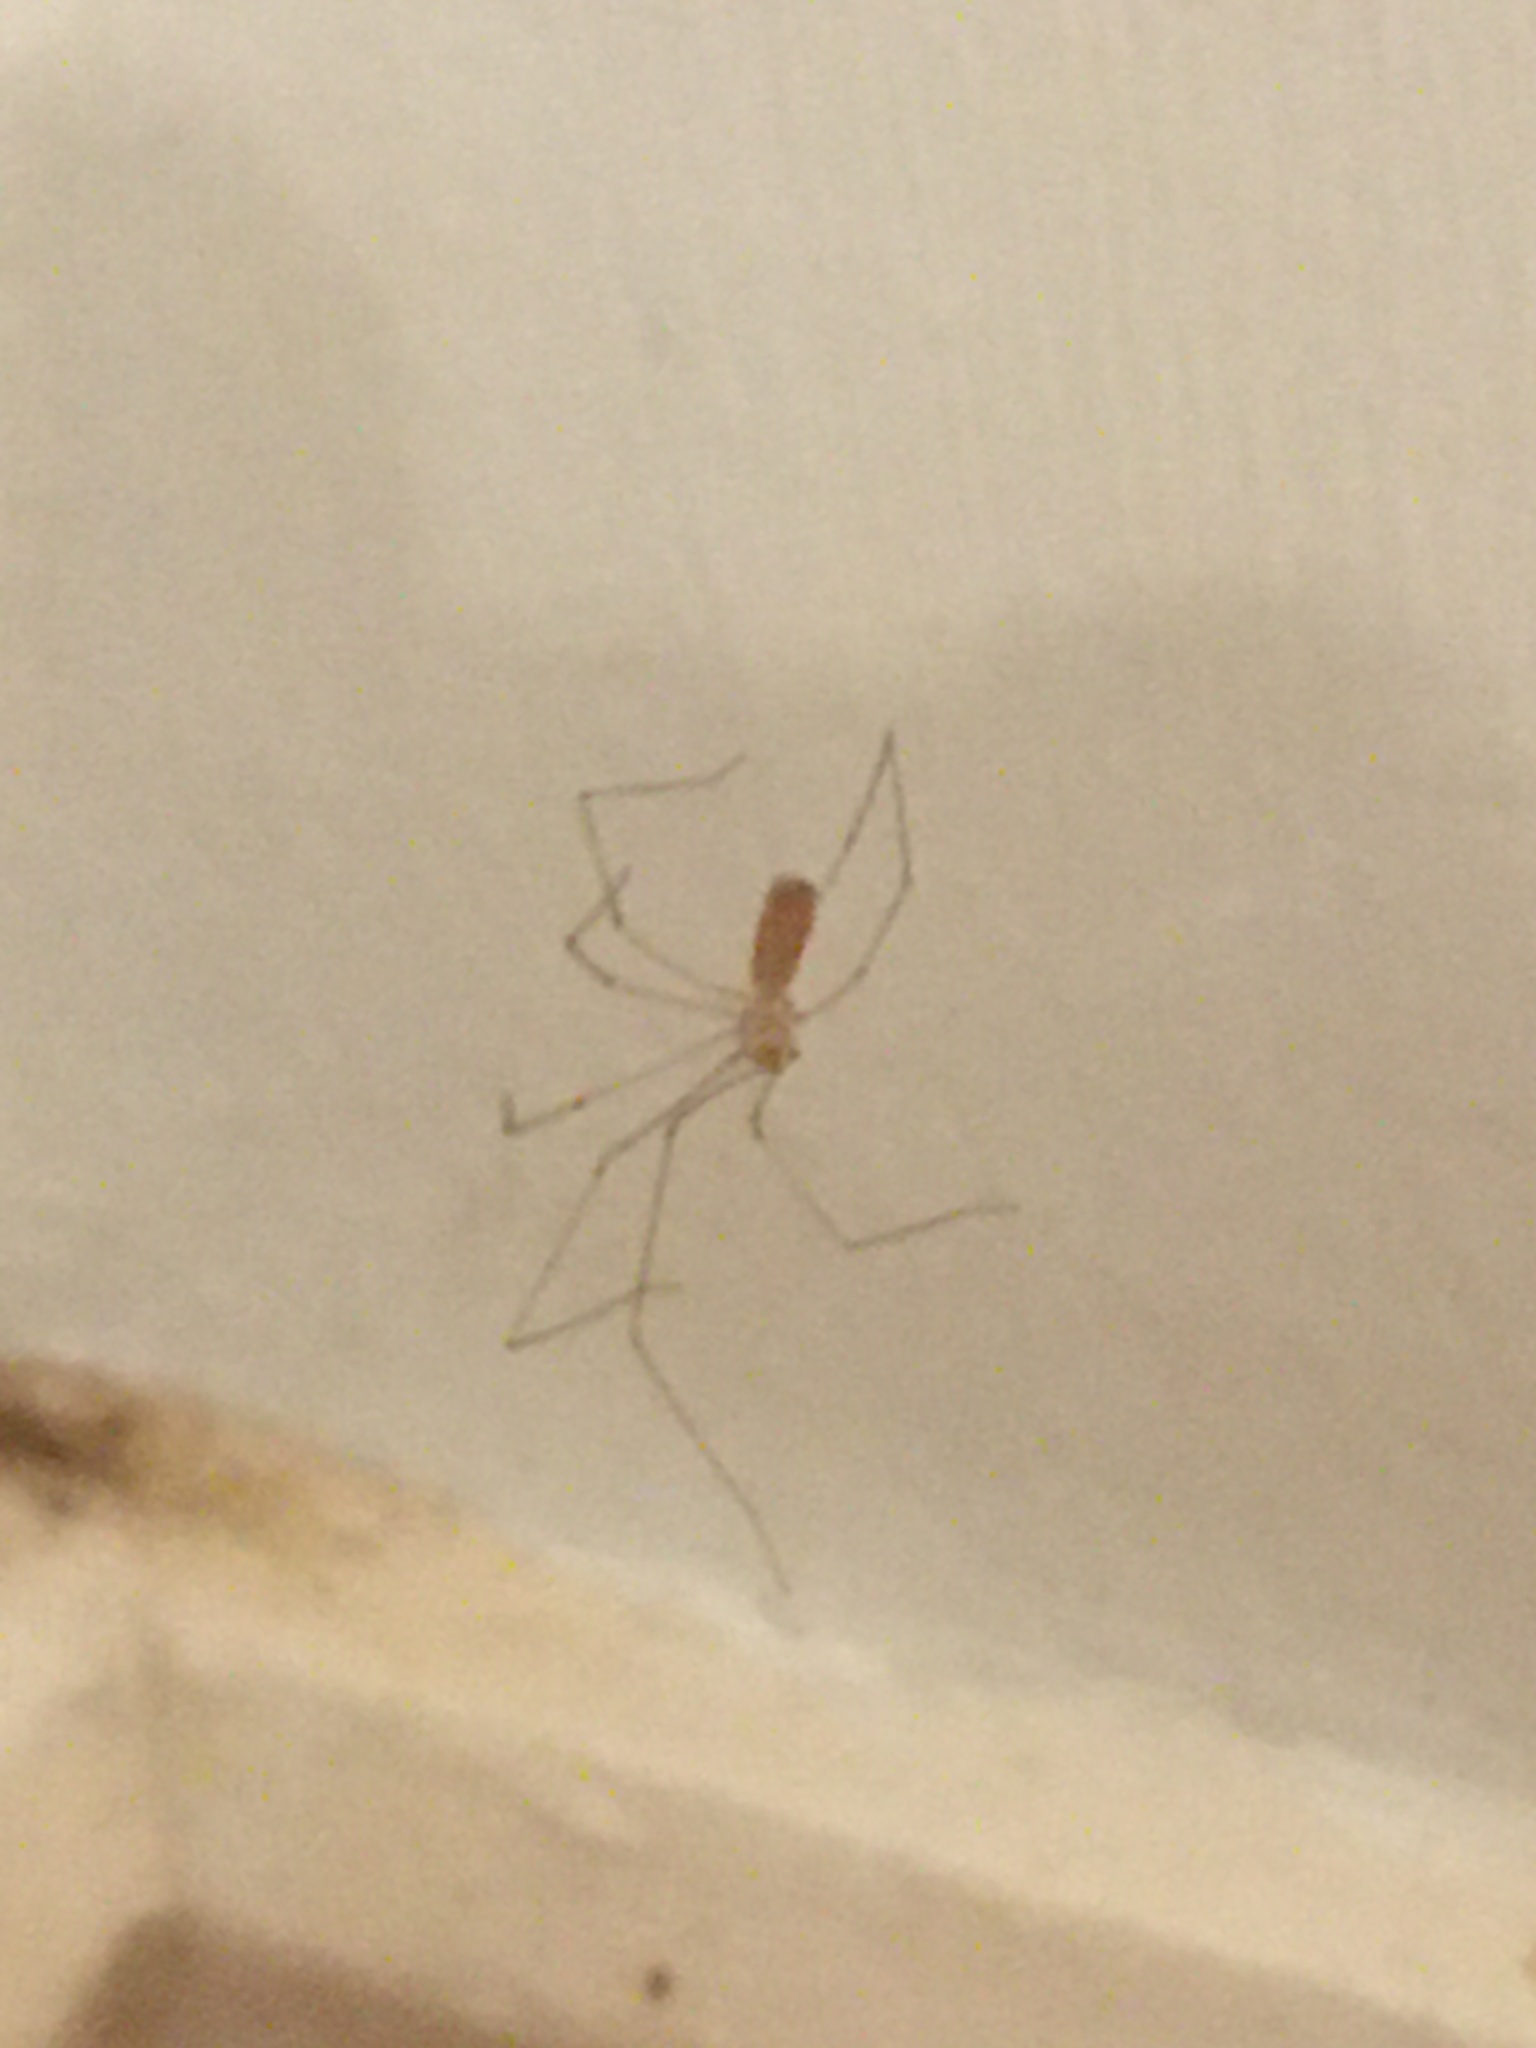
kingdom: Animalia
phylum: Arthropoda
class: Arachnida
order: Araneae
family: Pholcidae
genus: Pholcus
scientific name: Pholcus phalangioides
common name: Longbodied cellar spider
